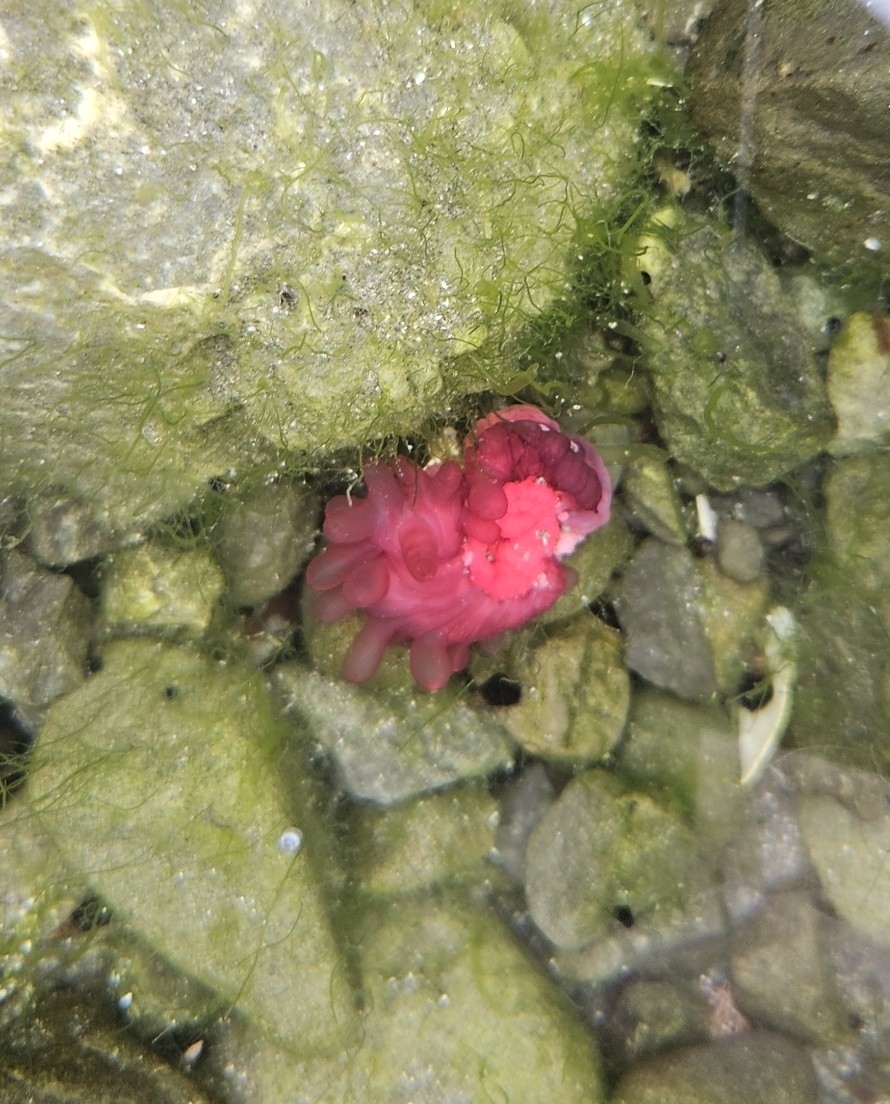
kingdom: Animalia
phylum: Cnidaria
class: Anthozoa
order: Actiniaria
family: Actiniidae
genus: Actinia
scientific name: Actinia tenebrosa
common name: Waratah anemone
